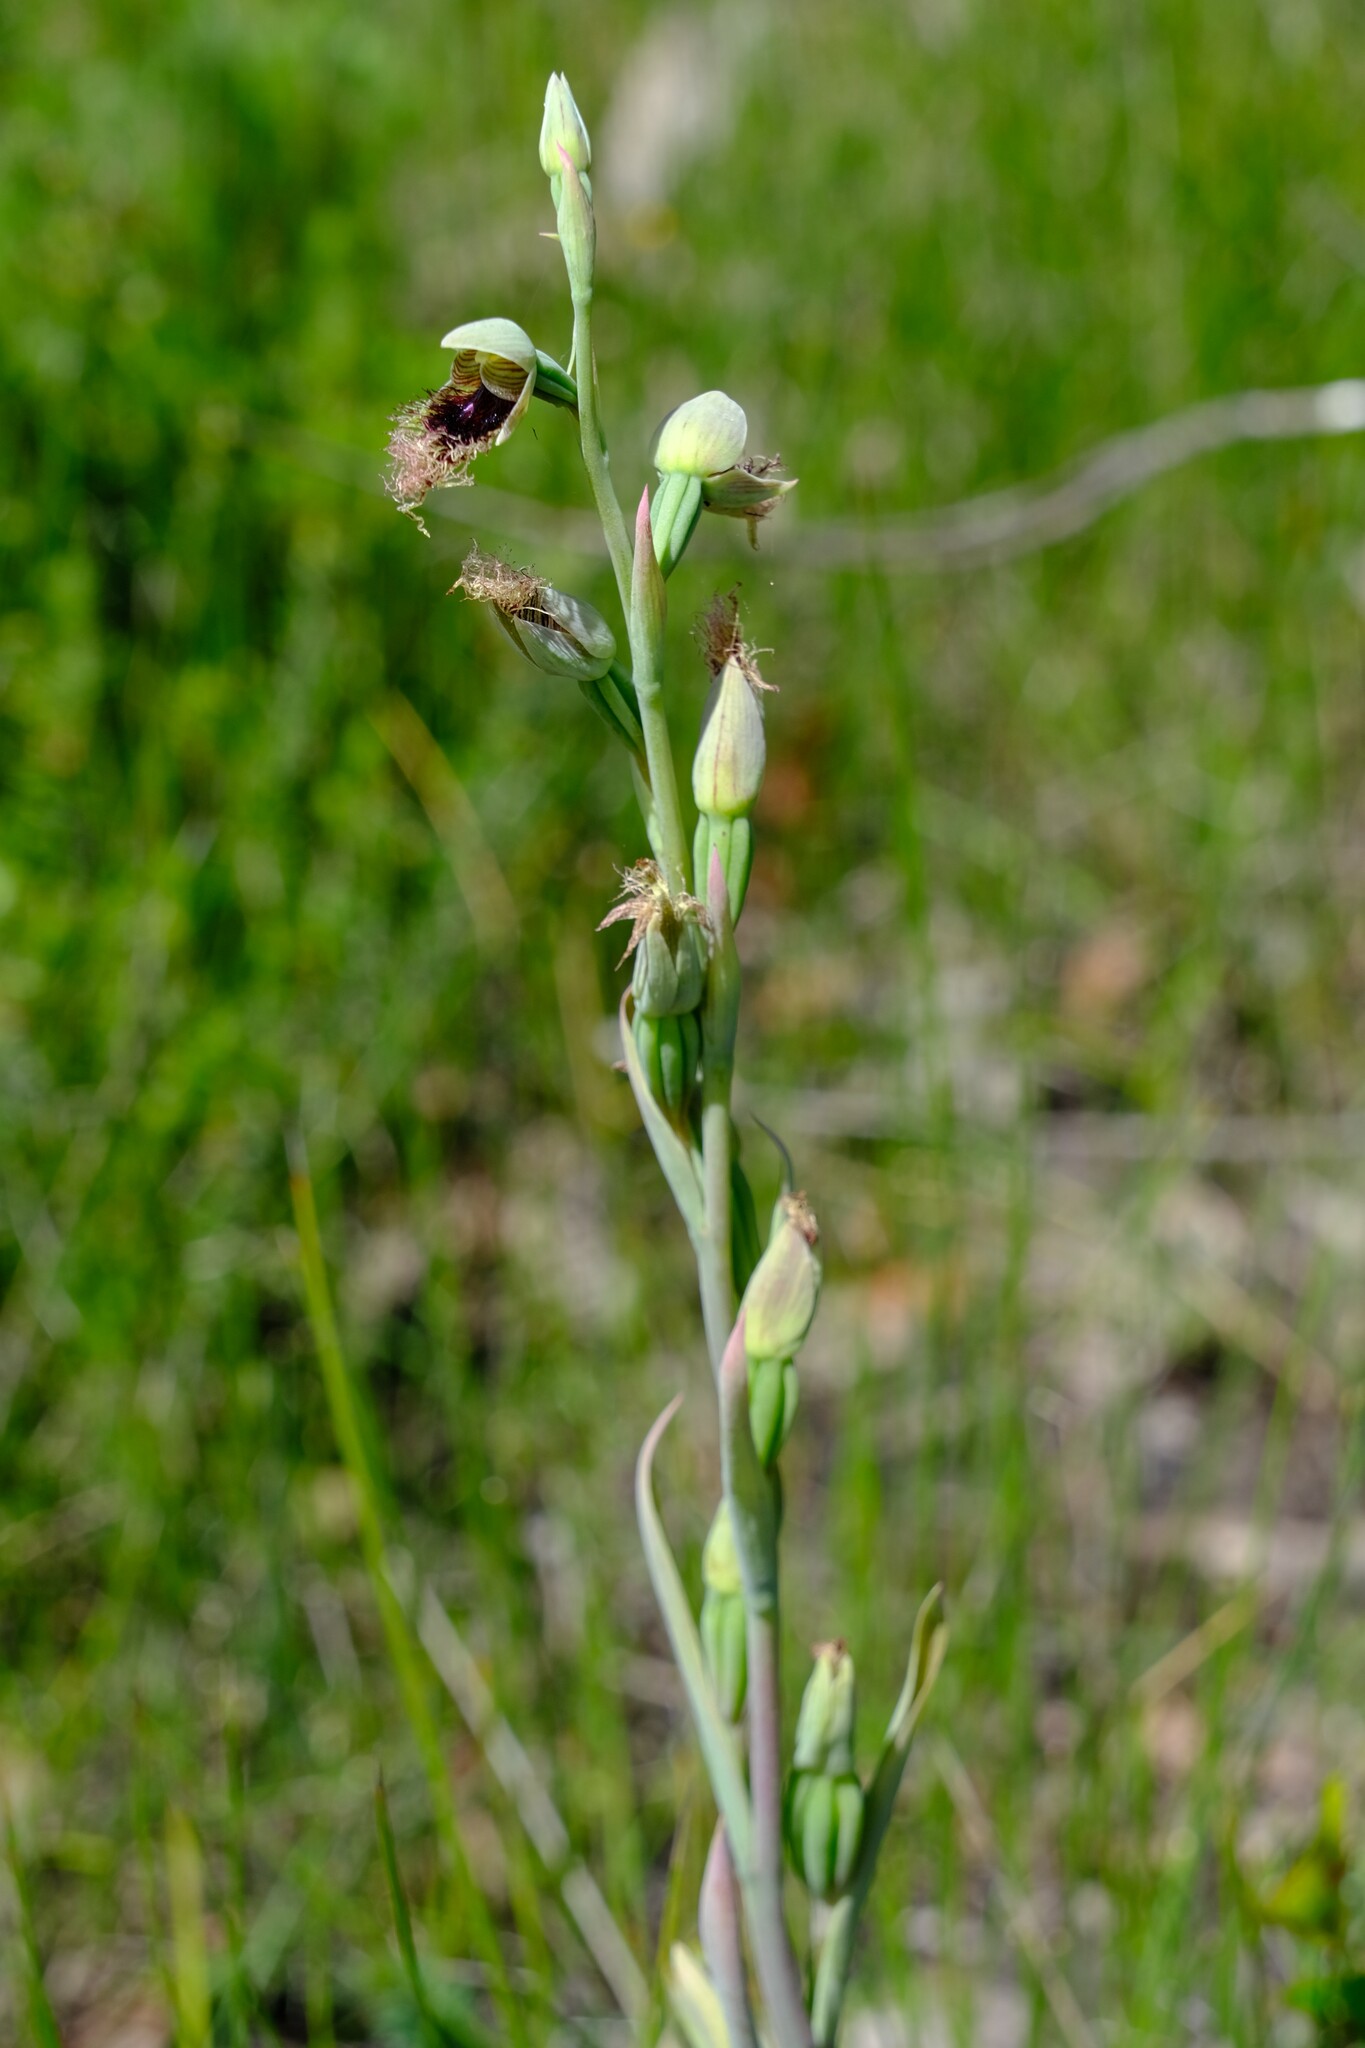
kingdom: Plantae
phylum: Tracheophyta
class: Liliopsida
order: Asparagales
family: Orchidaceae
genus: Calochilus
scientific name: Calochilus robertsonii
